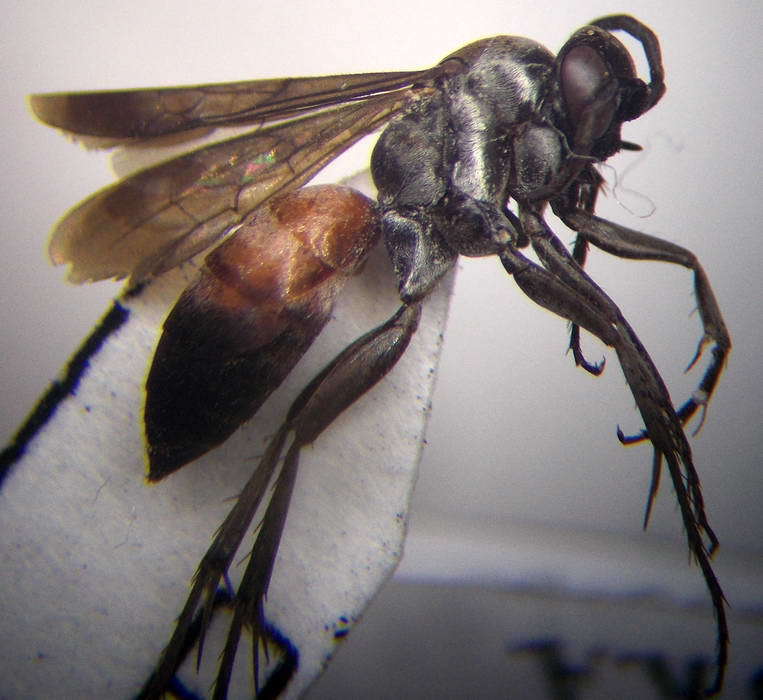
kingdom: Animalia
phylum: Arthropoda
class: Insecta
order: Hymenoptera
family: Pompilidae
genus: Evagetes
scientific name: Evagetes dubius
